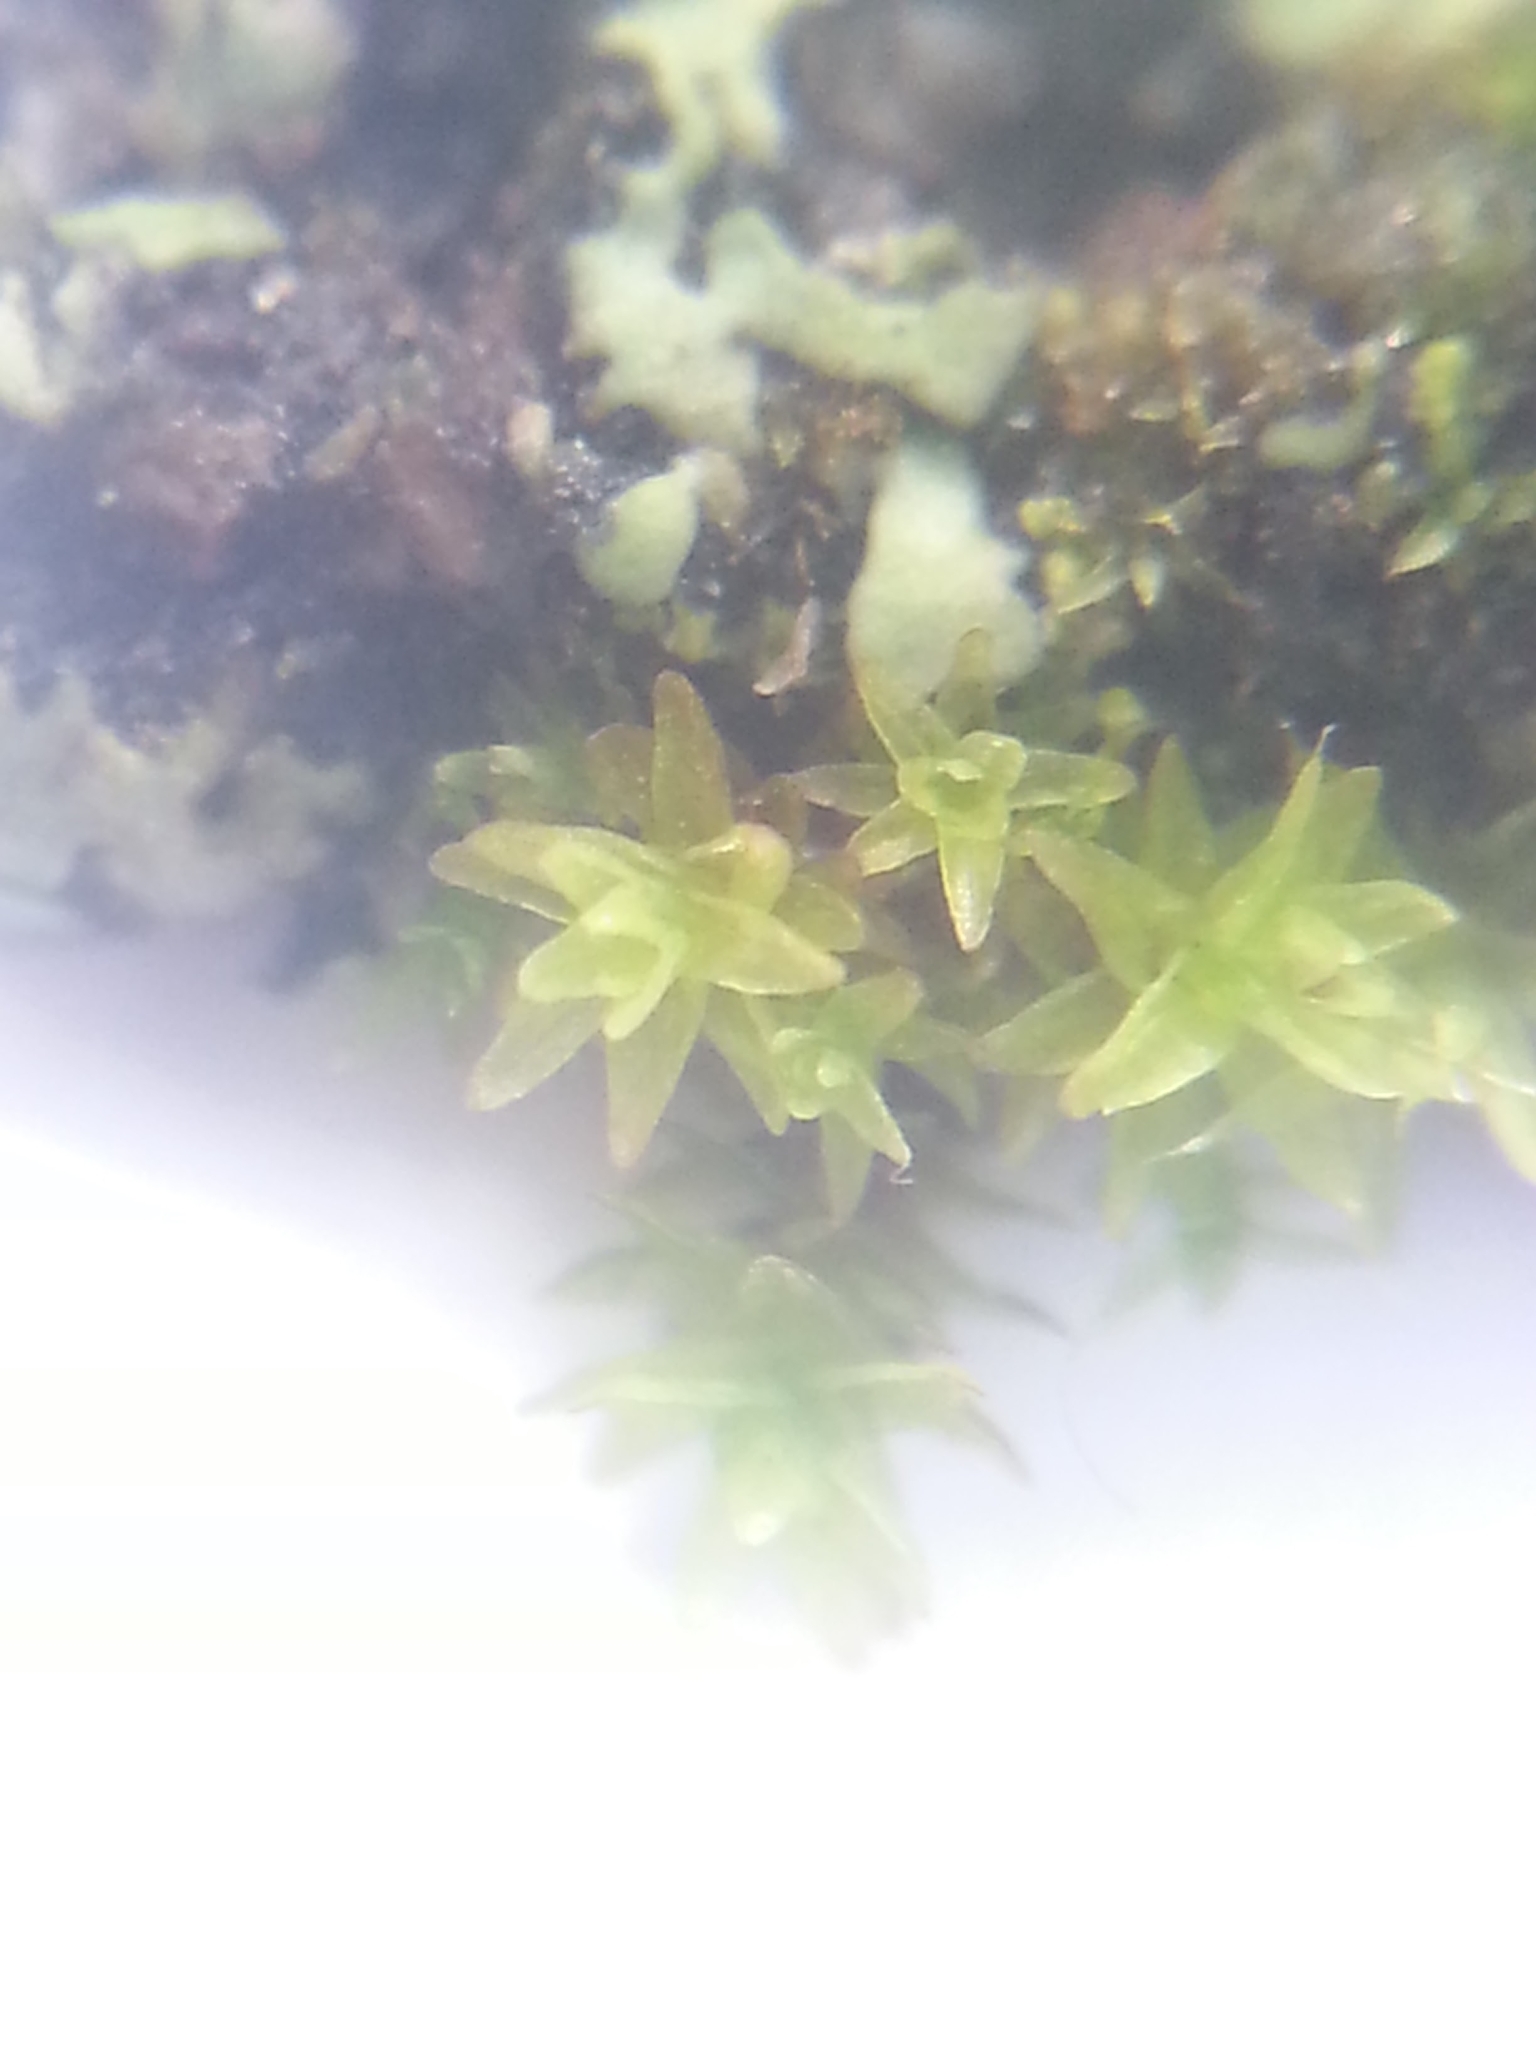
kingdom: Plantae
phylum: Bryophyta
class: Bryopsida
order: Orthotrichales
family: Orthotrichaceae
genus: Nyholmiella
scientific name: Nyholmiella obtusifolia
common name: Blunt-leaved bristle-moss
